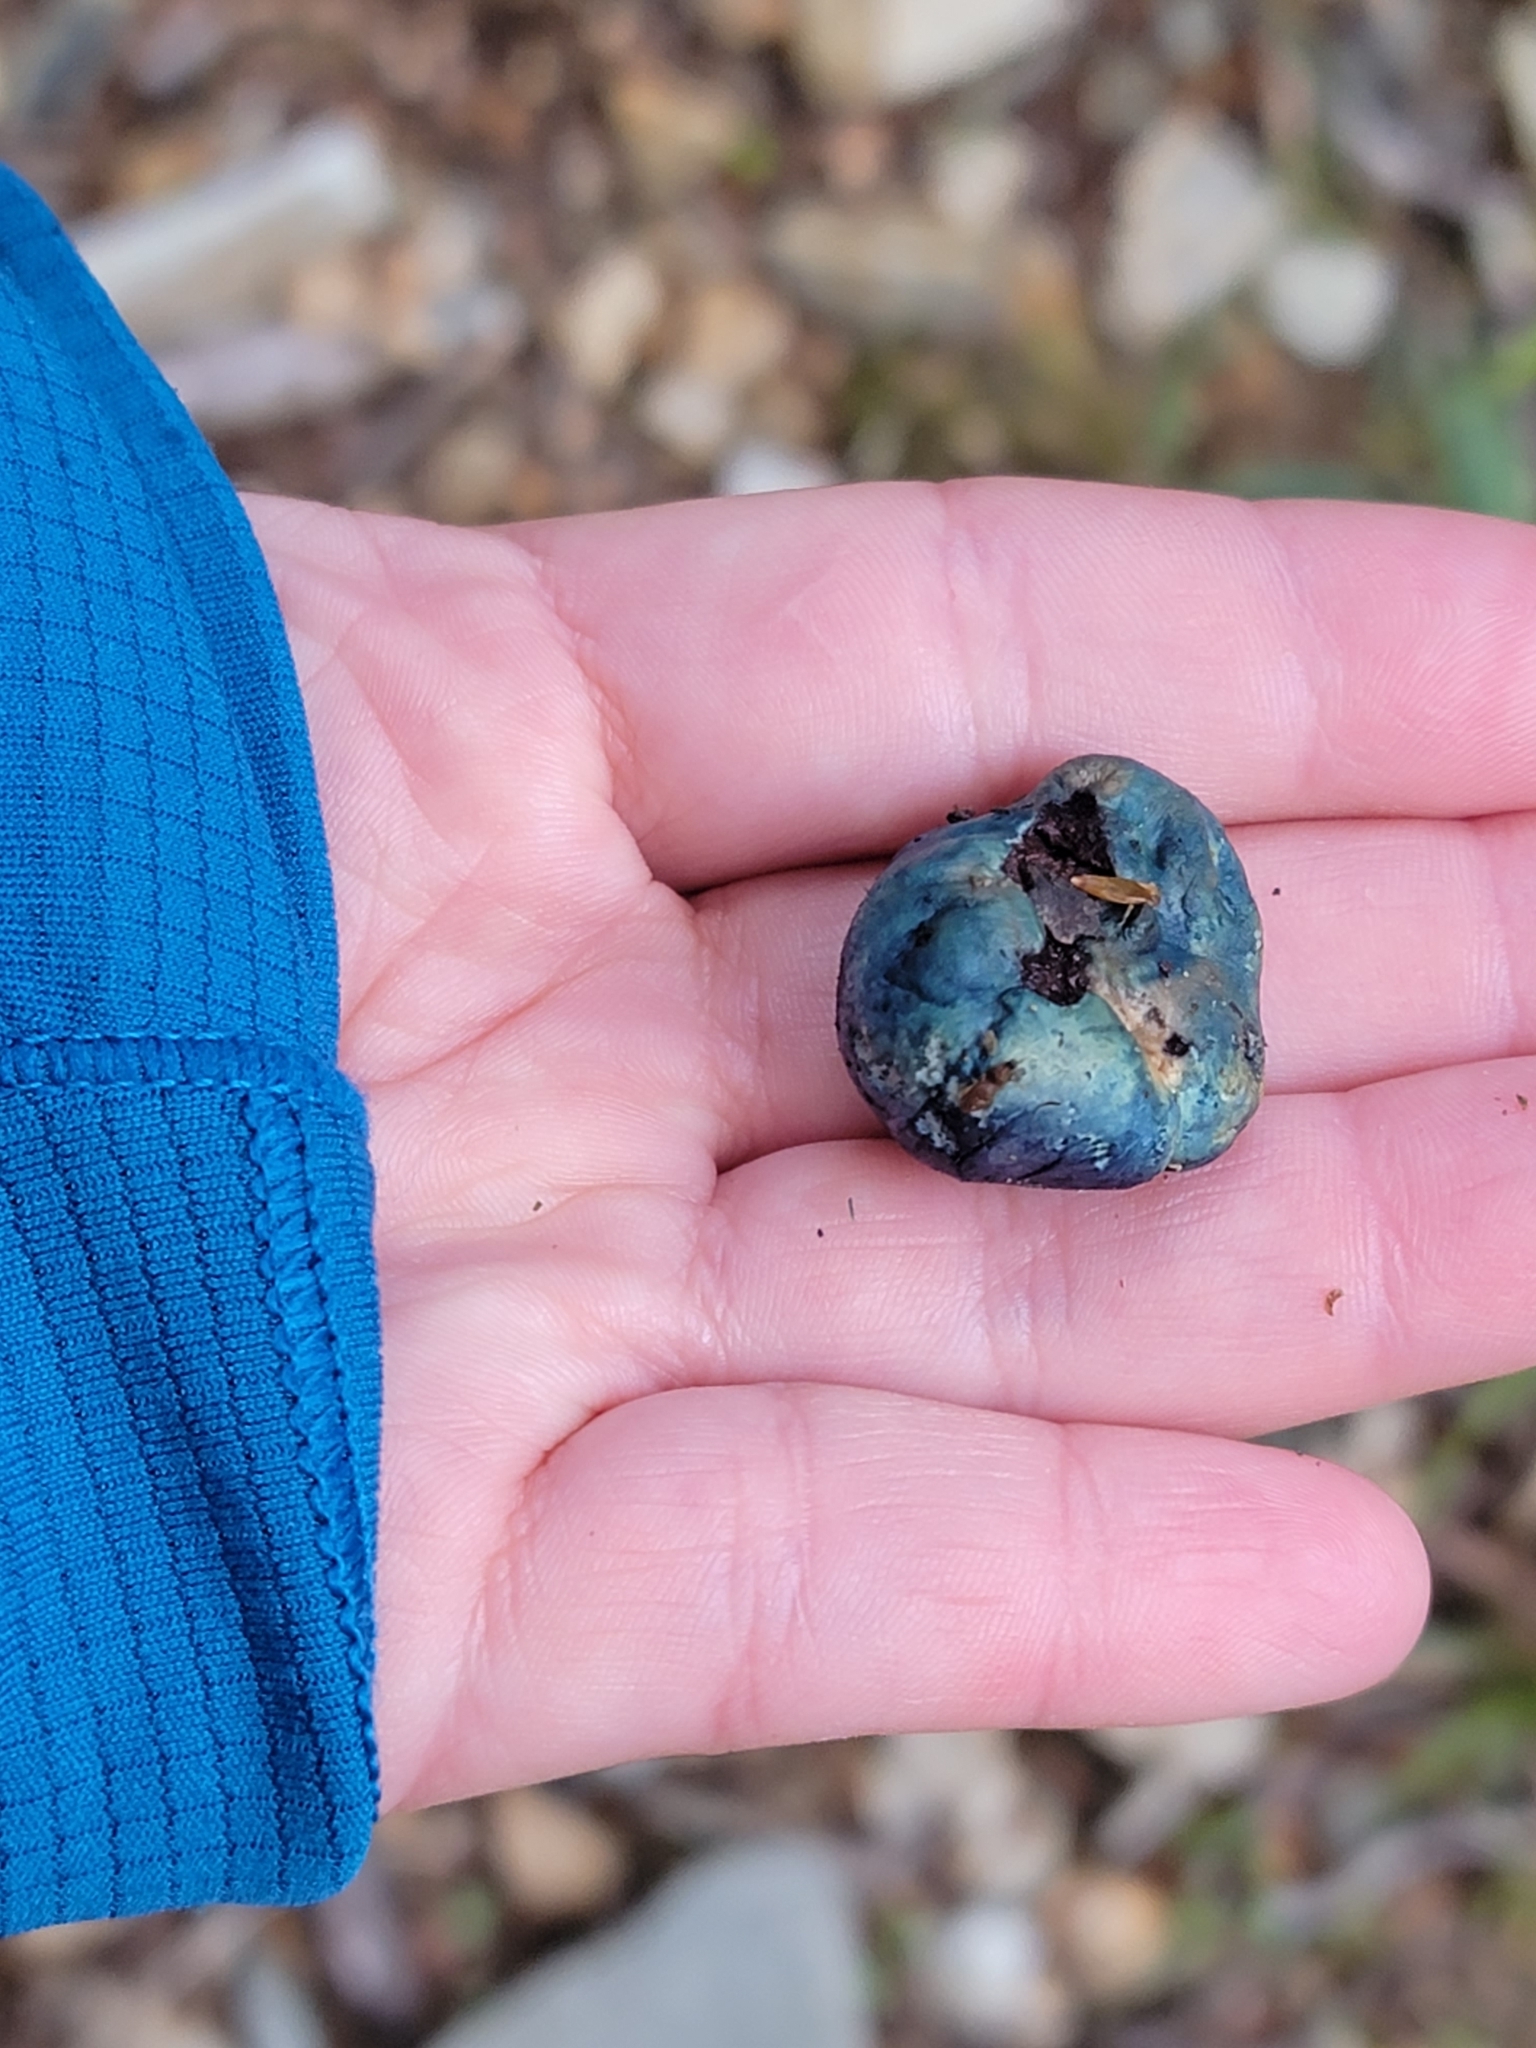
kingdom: Fungi
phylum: Basidiomycota
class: Agaricomycetes
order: Boletales
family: Boletaceae
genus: Leccinum
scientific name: Leccinum pachyderme
